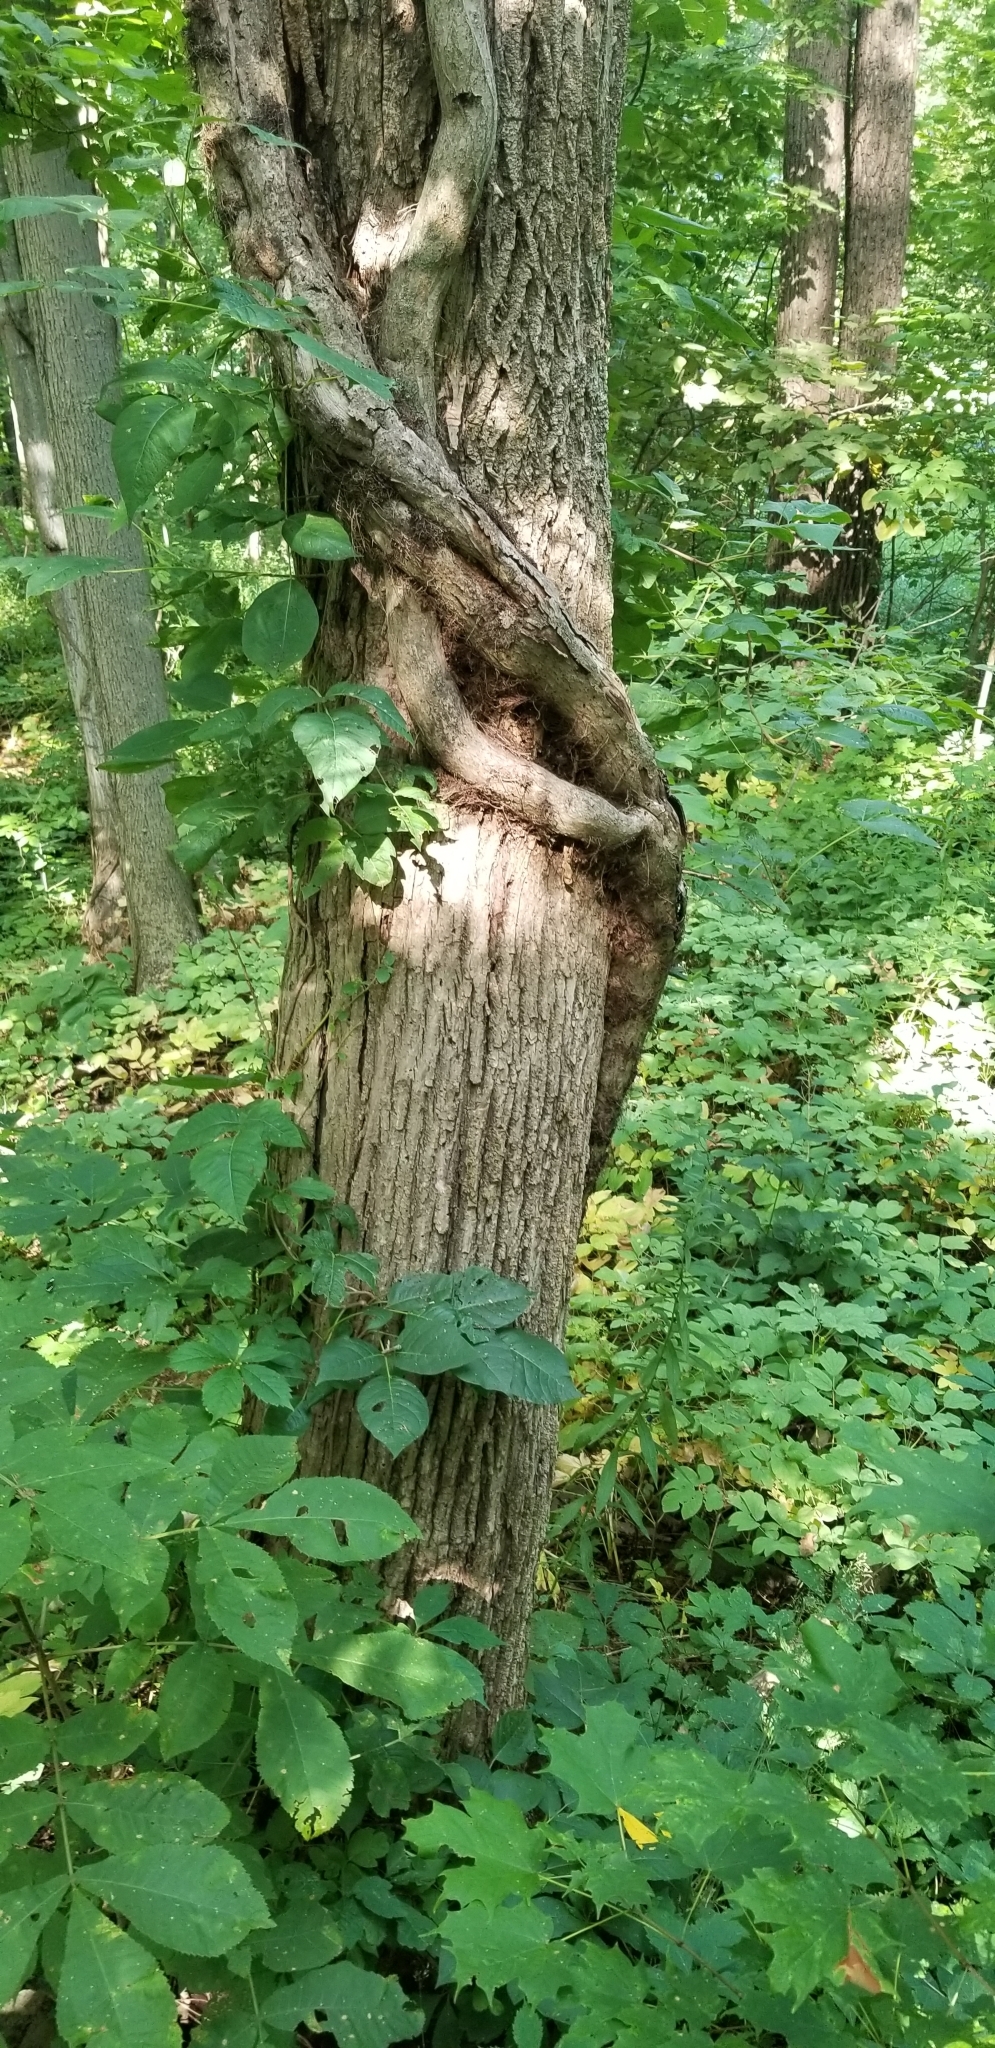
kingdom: Plantae
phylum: Tracheophyta
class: Magnoliopsida
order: Sapindales
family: Anacardiaceae
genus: Toxicodendron
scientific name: Toxicodendron radicans
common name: Poison ivy
